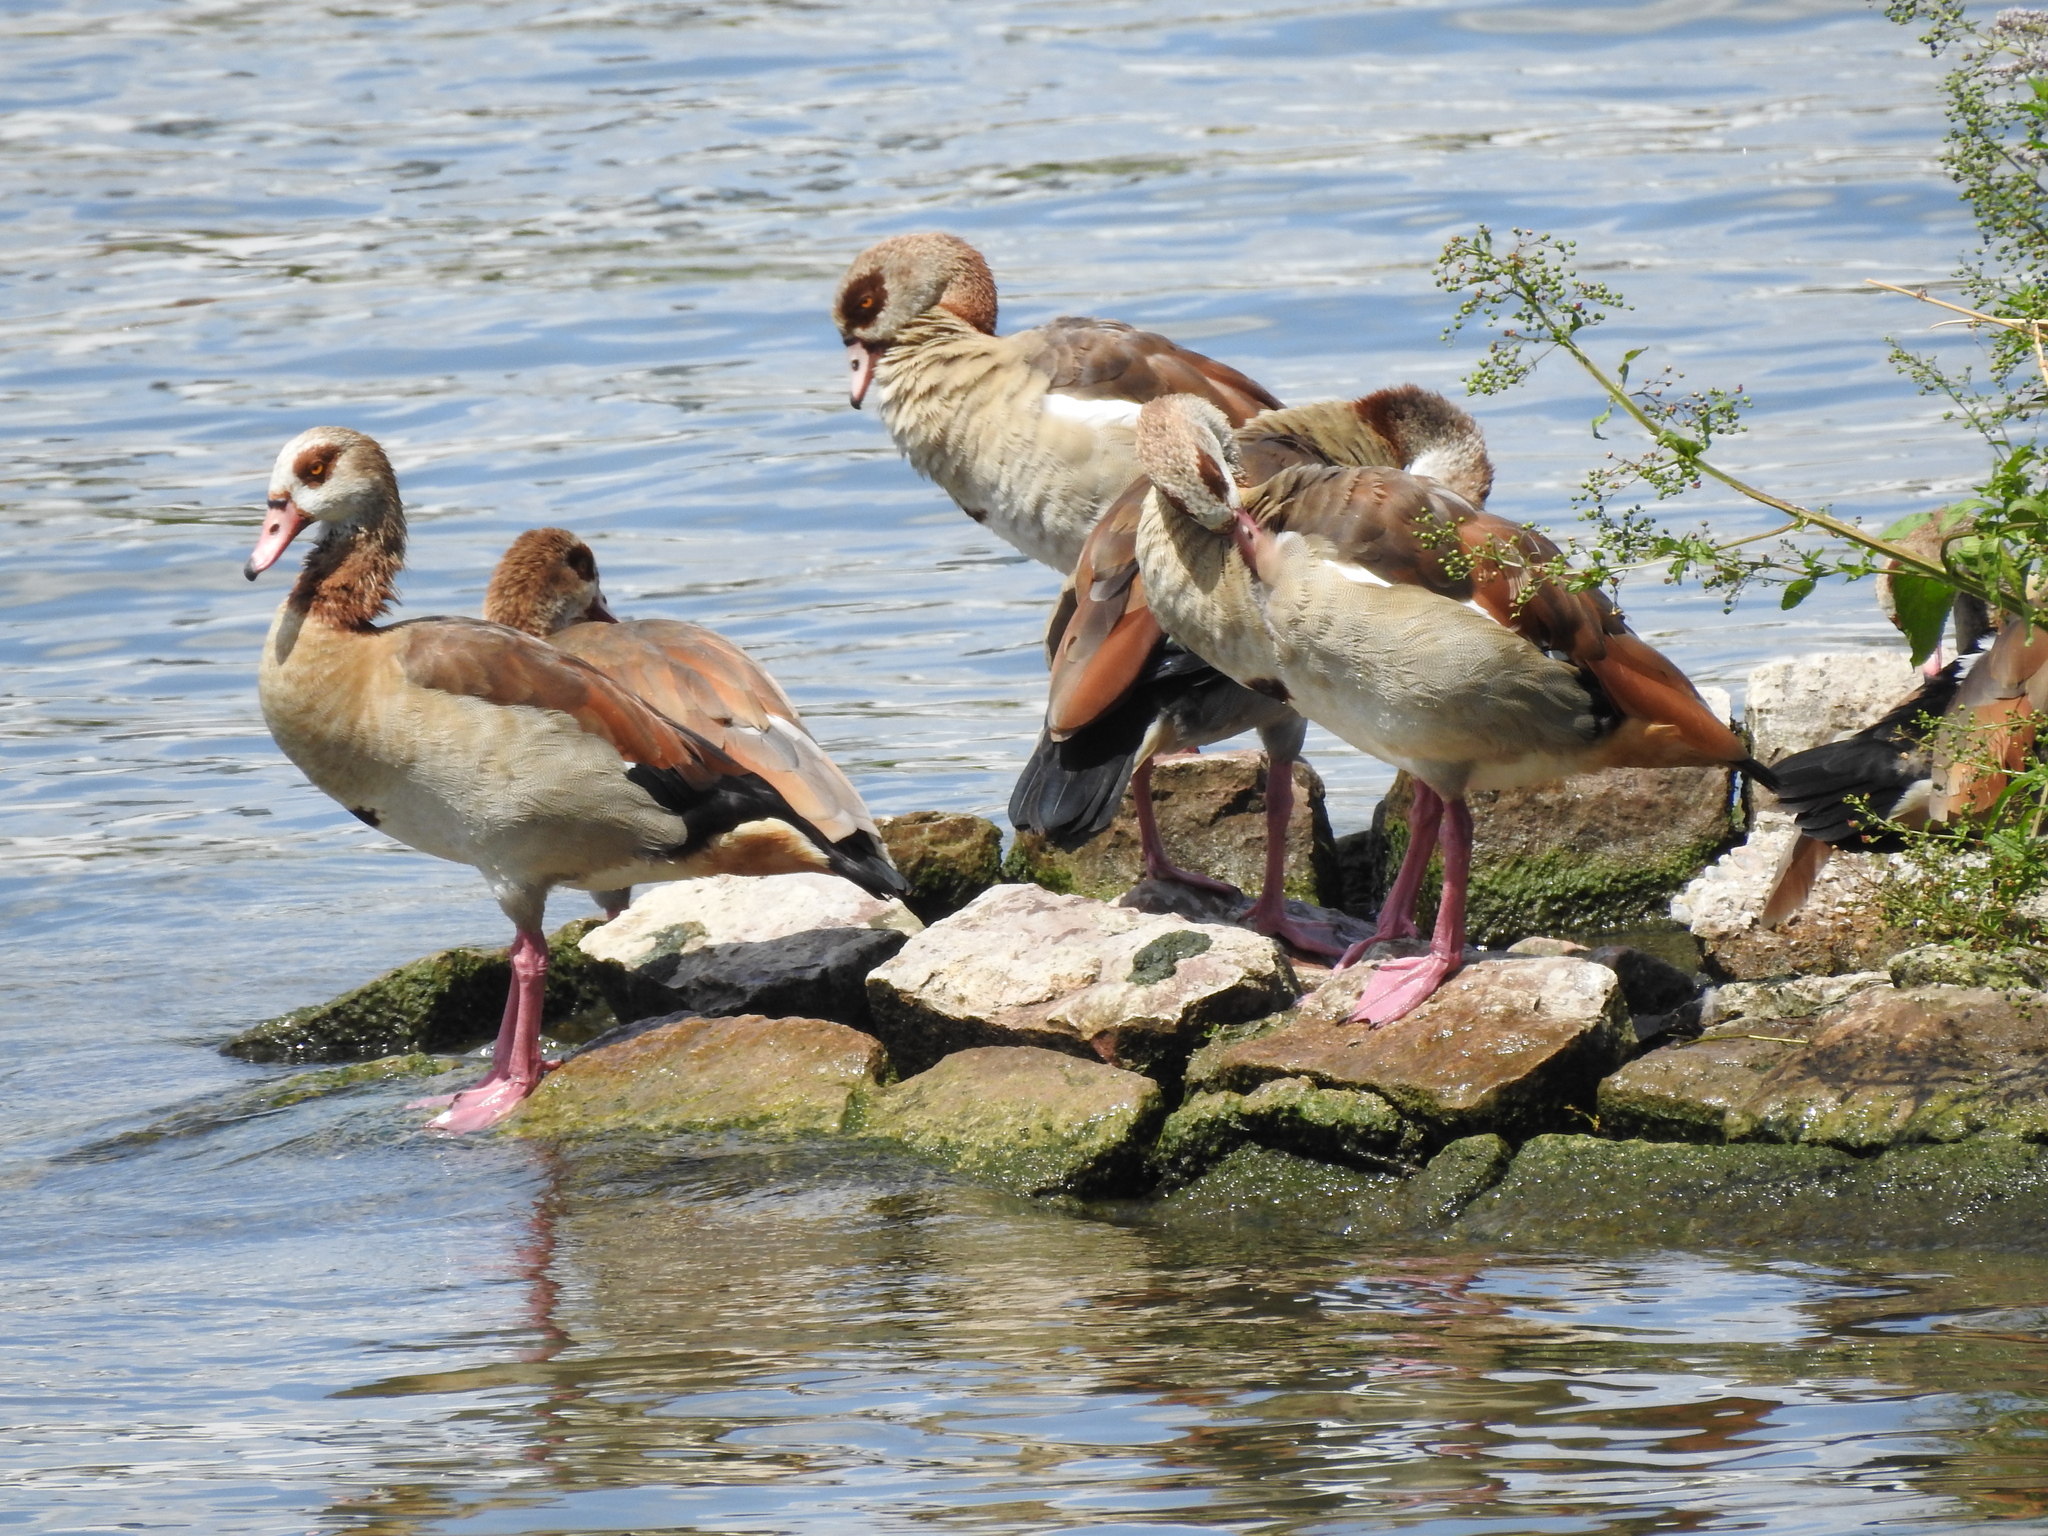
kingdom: Animalia
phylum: Chordata
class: Aves
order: Anseriformes
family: Anatidae
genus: Alopochen
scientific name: Alopochen aegyptiaca
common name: Egyptian goose
